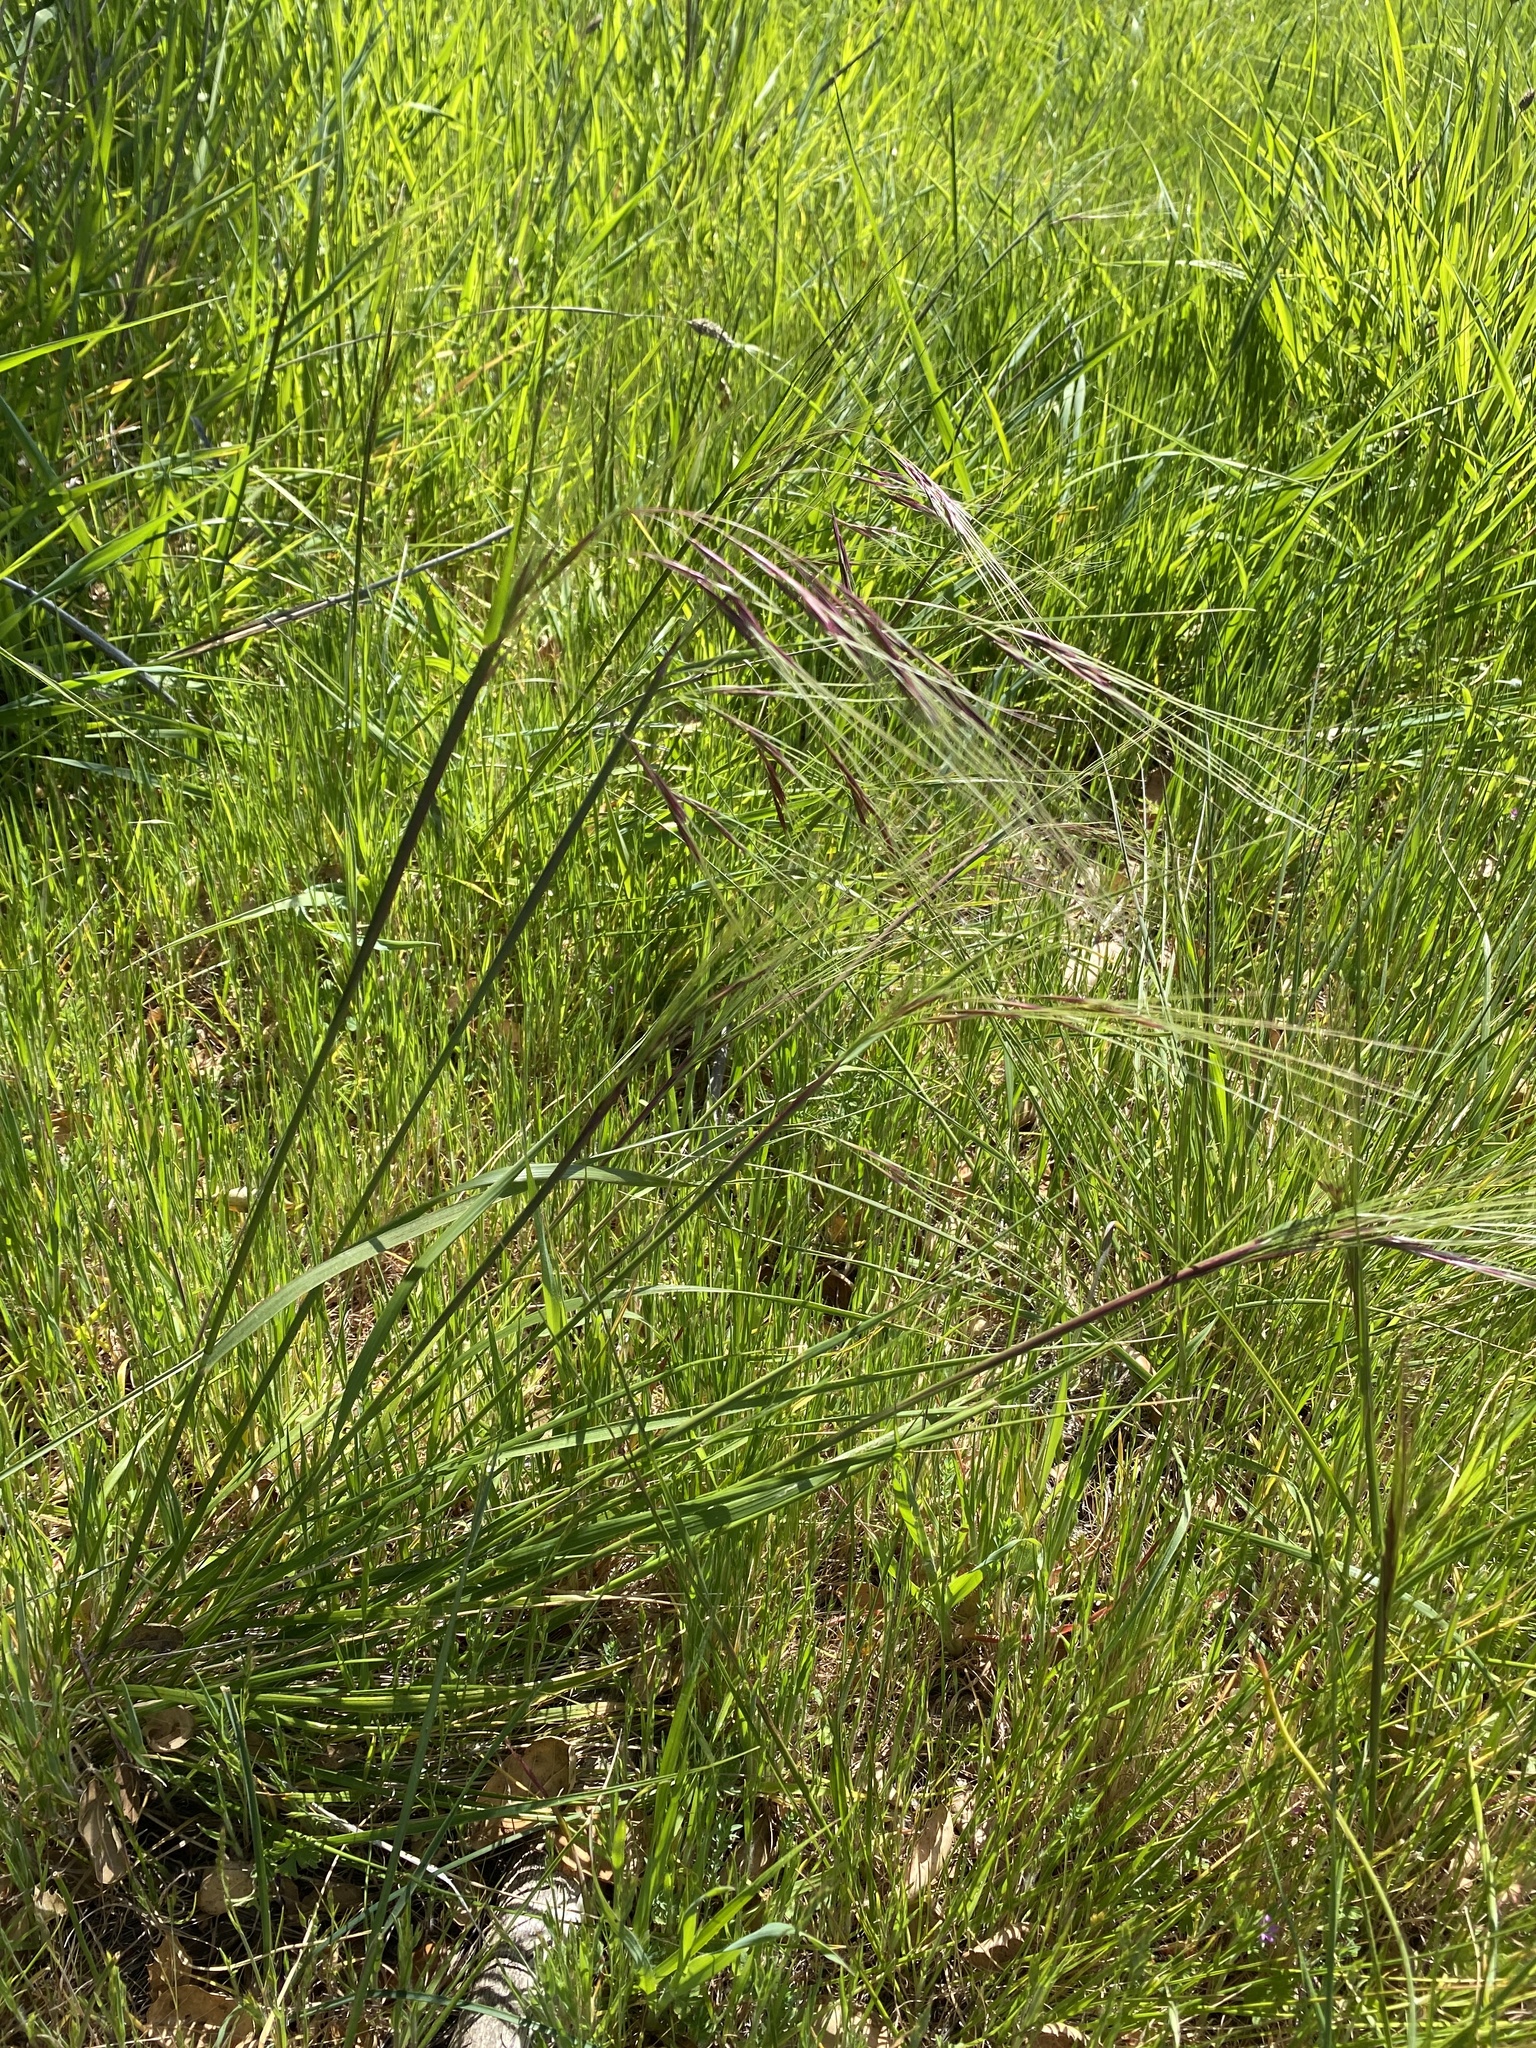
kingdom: Plantae
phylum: Tracheophyta
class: Liliopsida
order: Poales
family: Poaceae
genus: Nassella
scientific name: Nassella pulchra
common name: Purple needlegrass
